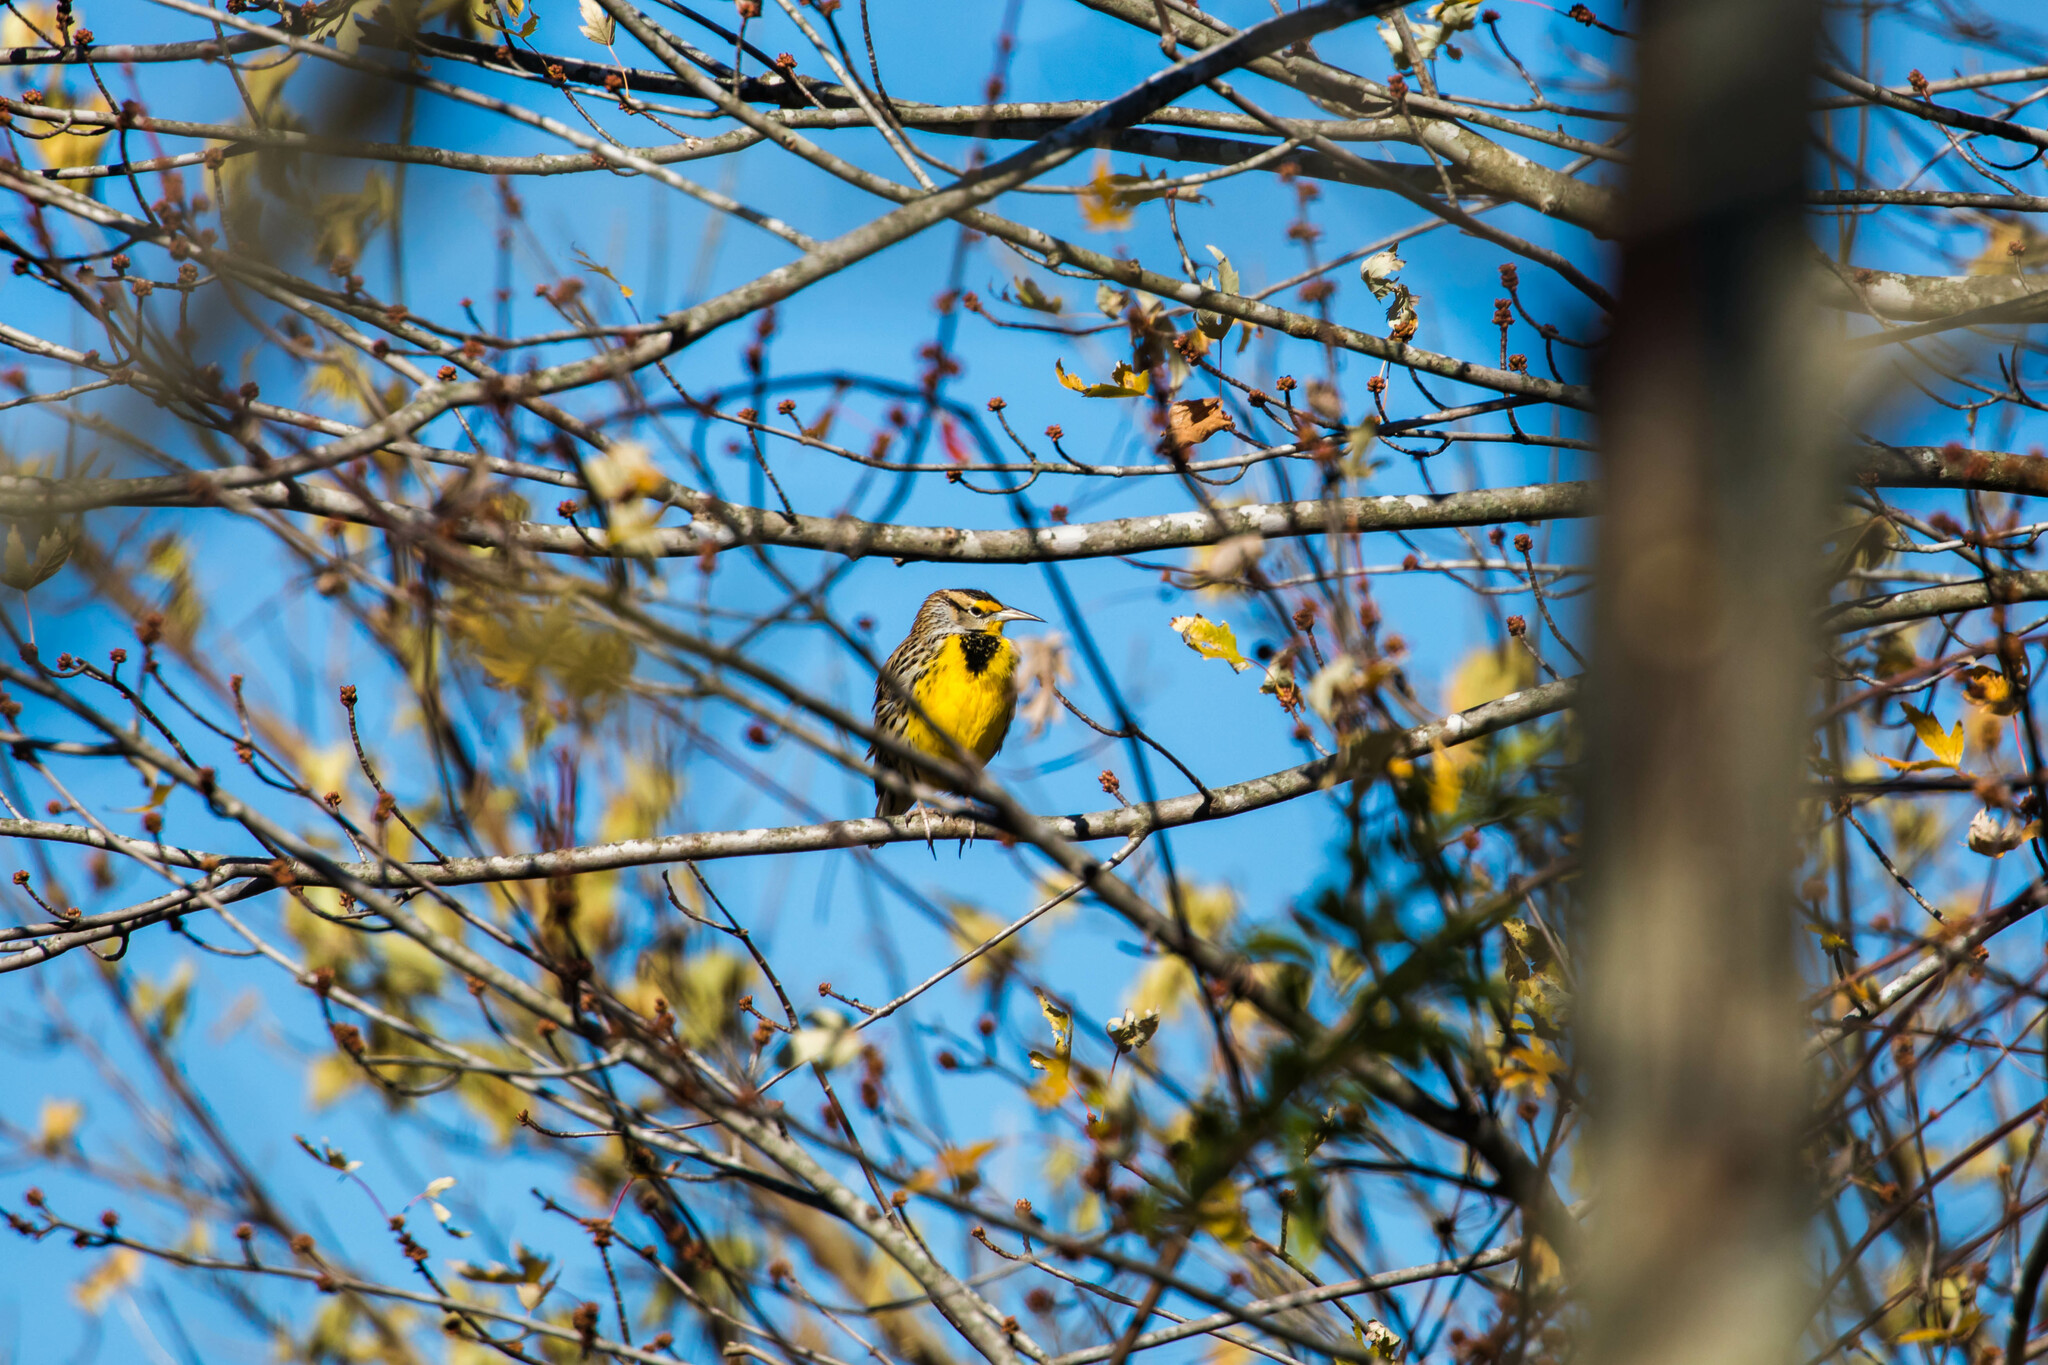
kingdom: Animalia
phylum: Chordata
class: Aves
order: Passeriformes
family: Icteridae
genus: Sturnella
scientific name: Sturnella magna
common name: Eastern meadowlark
